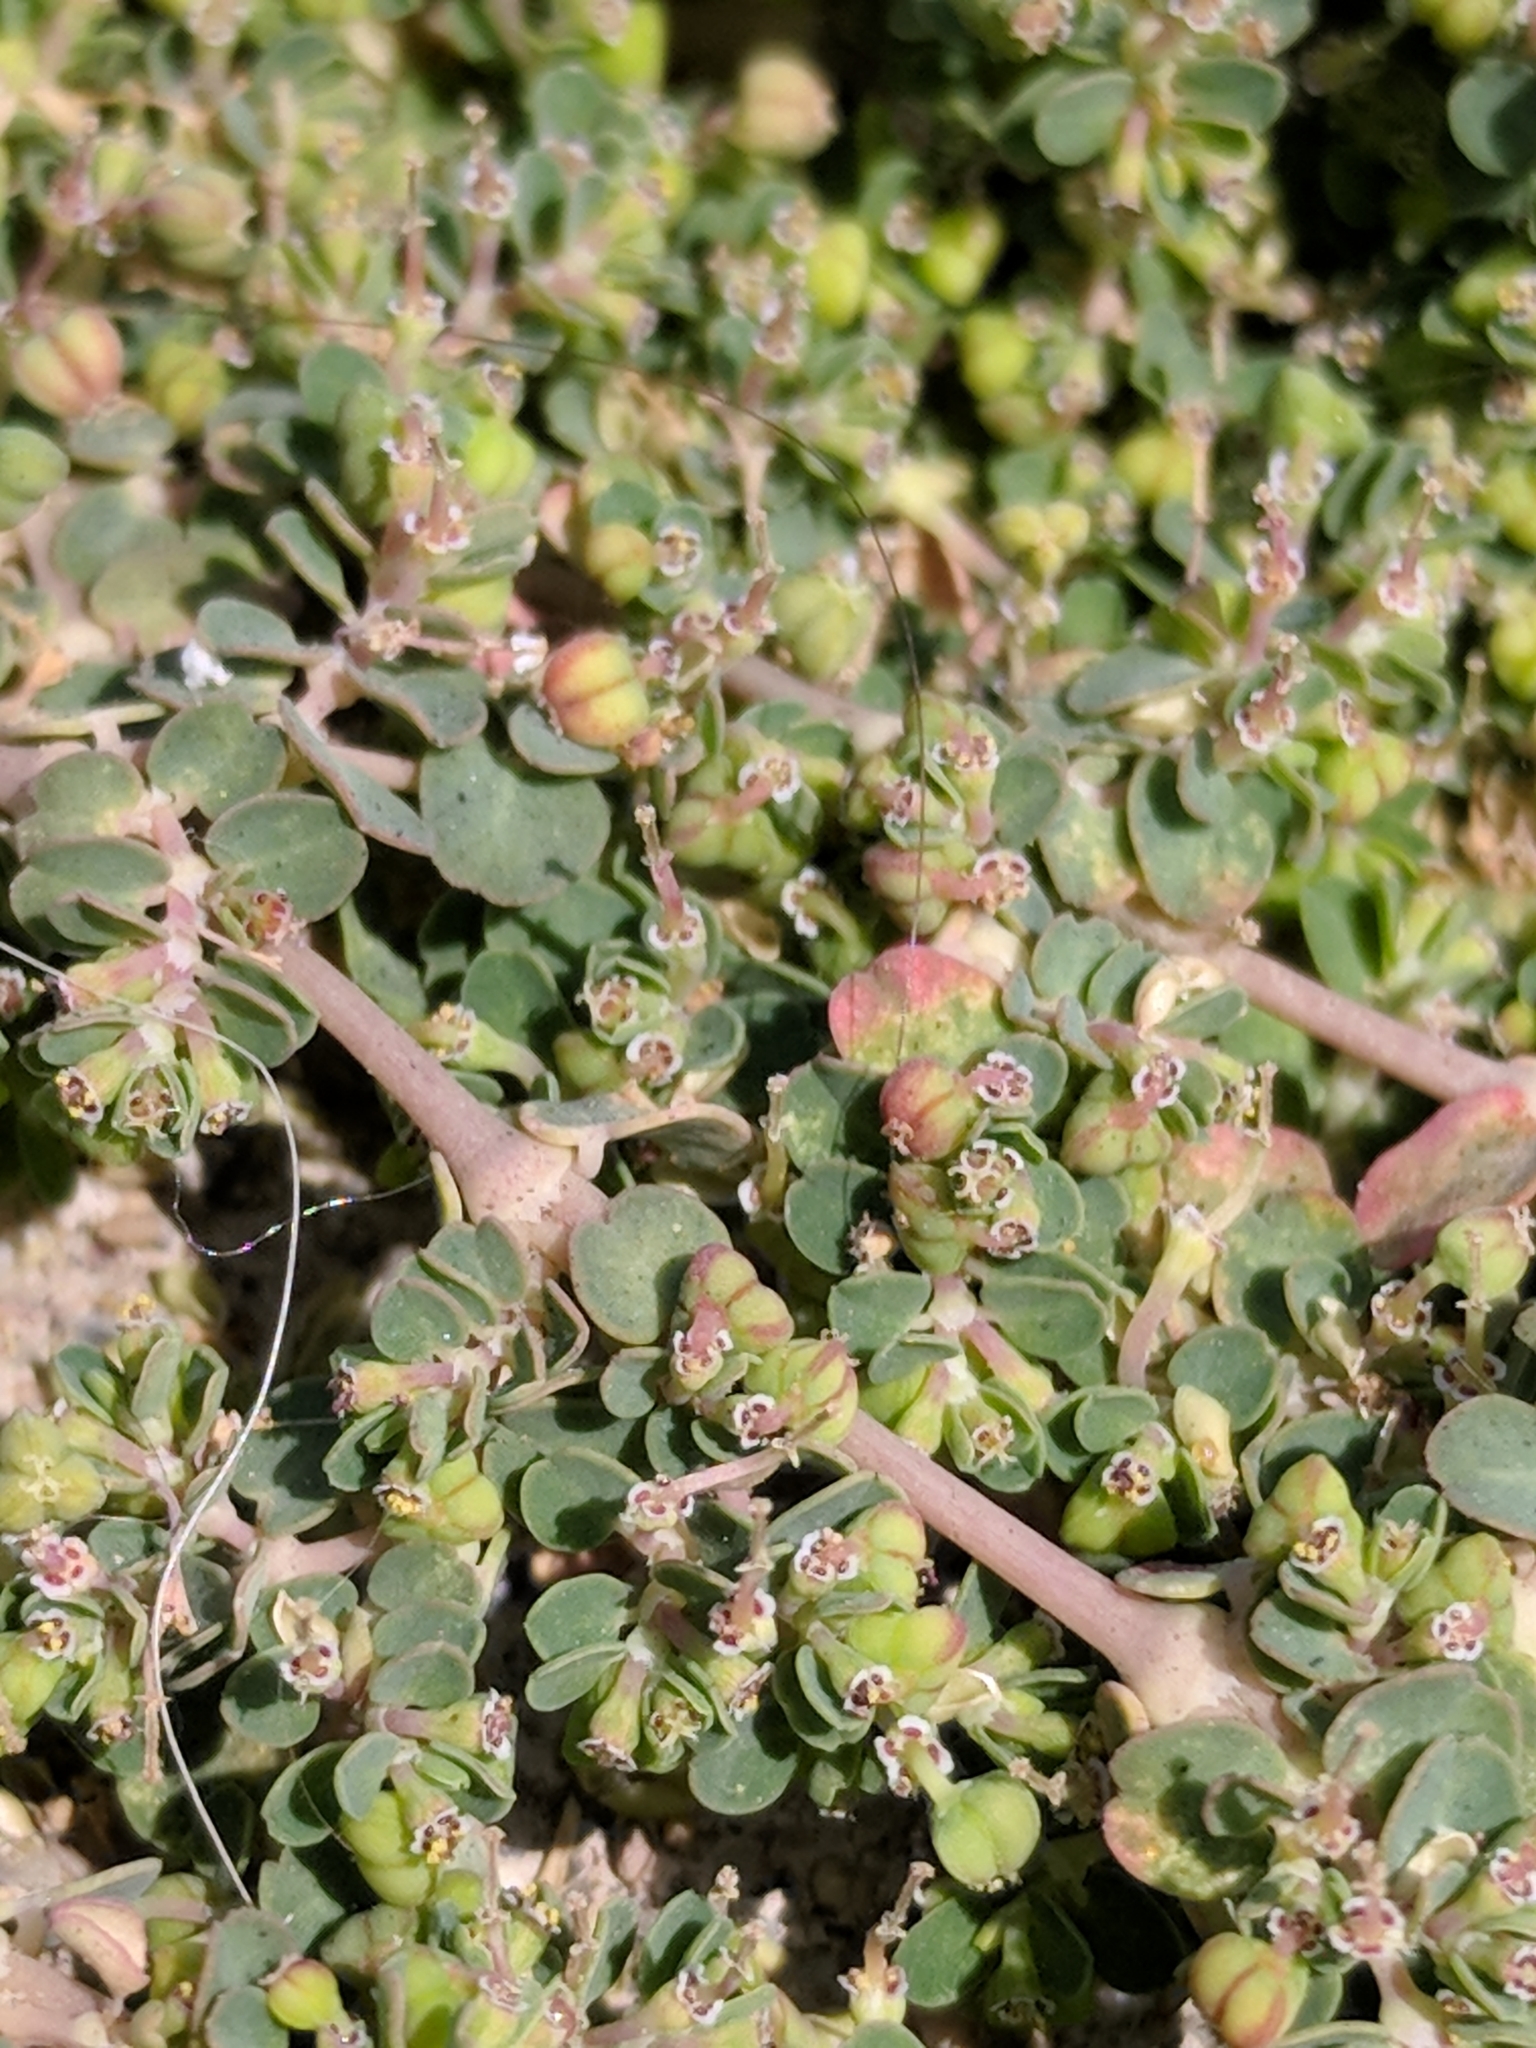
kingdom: Plantae
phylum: Tracheophyta
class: Magnoliopsida
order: Malpighiales
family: Euphorbiaceae
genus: Euphorbia
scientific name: Euphorbia serpens
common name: Matted sandmat
